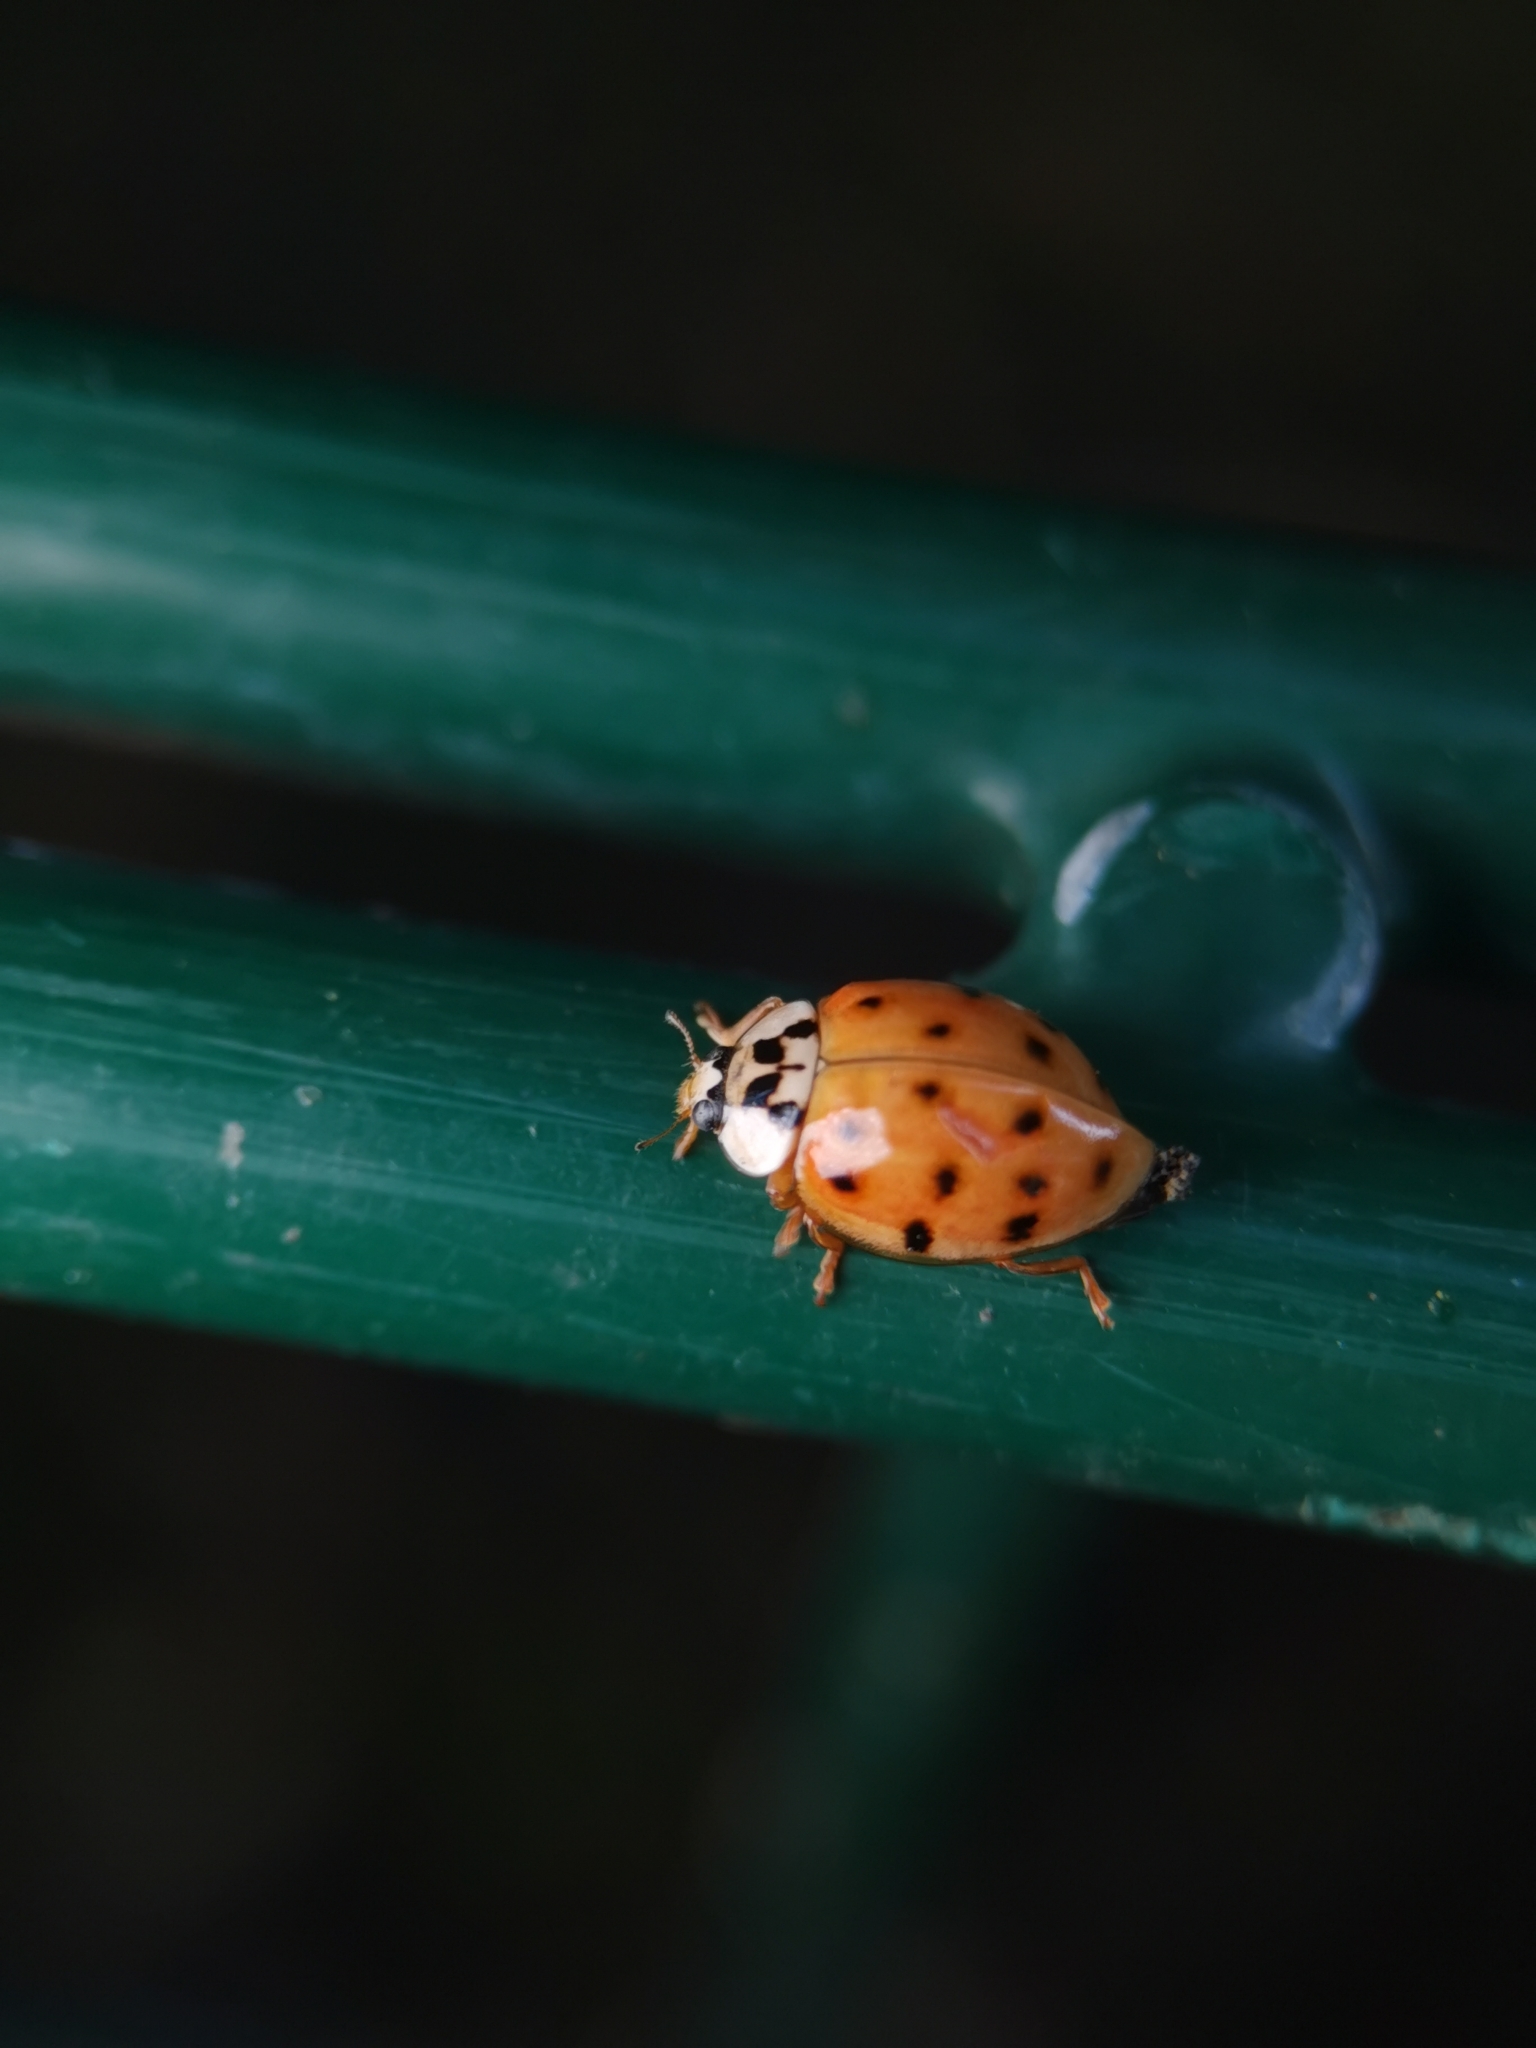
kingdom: Animalia
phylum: Arthropoda
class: Insecta
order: Coleoptera
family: Coccinellidae
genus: Harmonia
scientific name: Harmonia axyridis
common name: Harlequin ladybird
